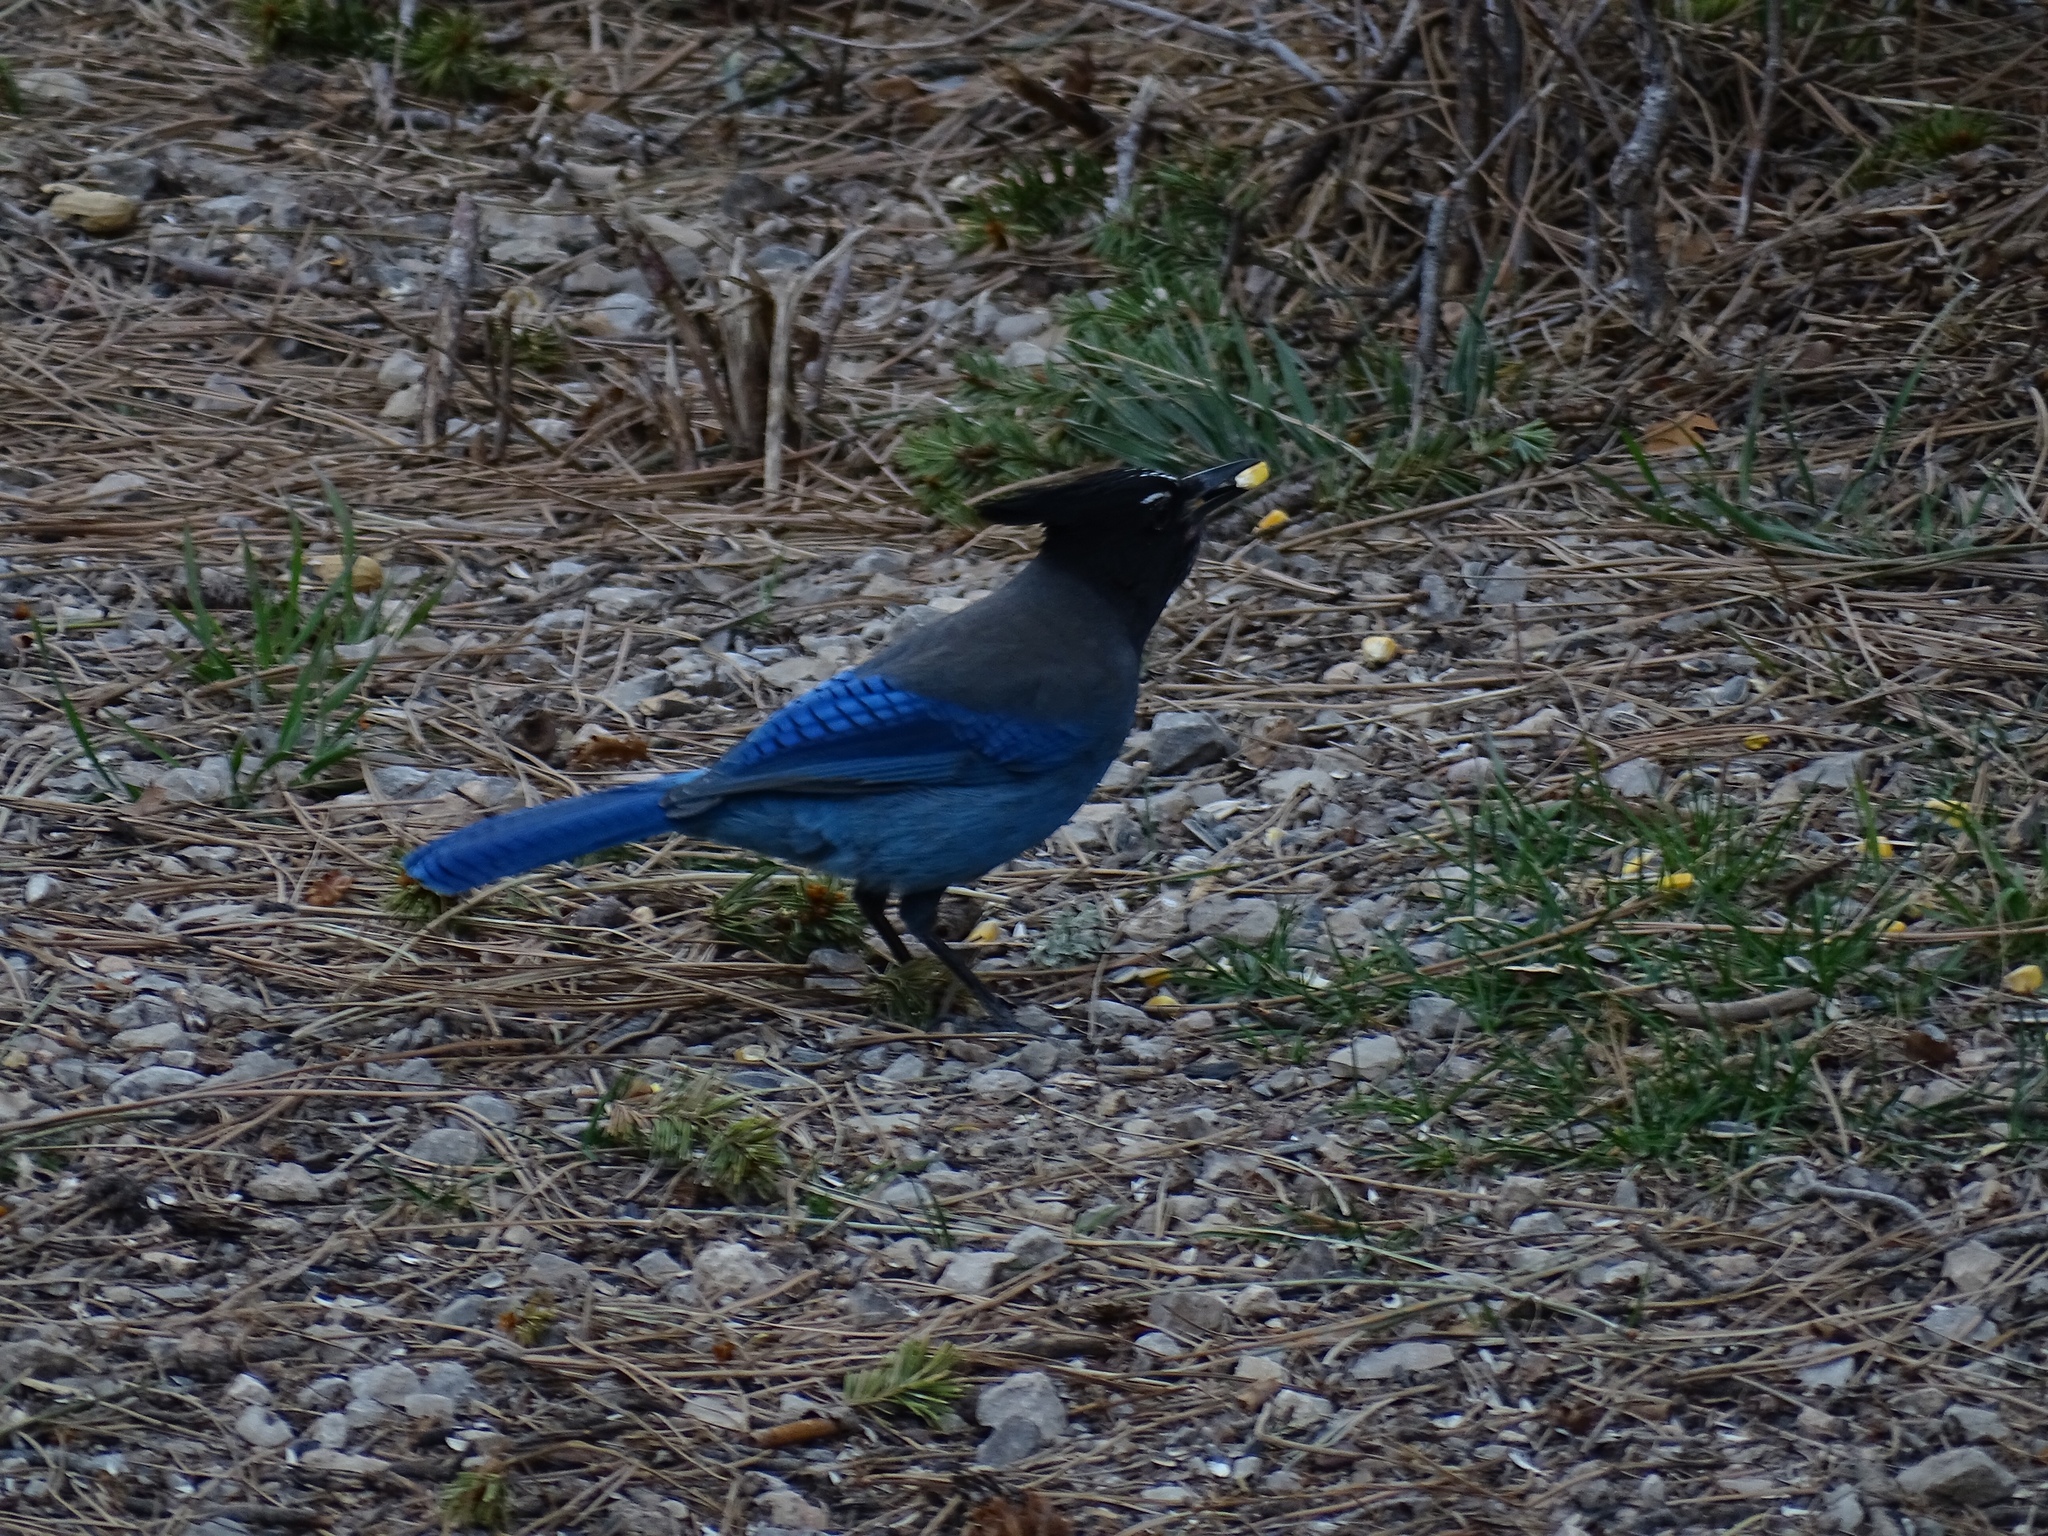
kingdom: Animalia
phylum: Chordata
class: Aves
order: Passeriformes
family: Corvidae
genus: Cyanocitta
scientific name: Cyanocitta stelleri
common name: Steller's jay
